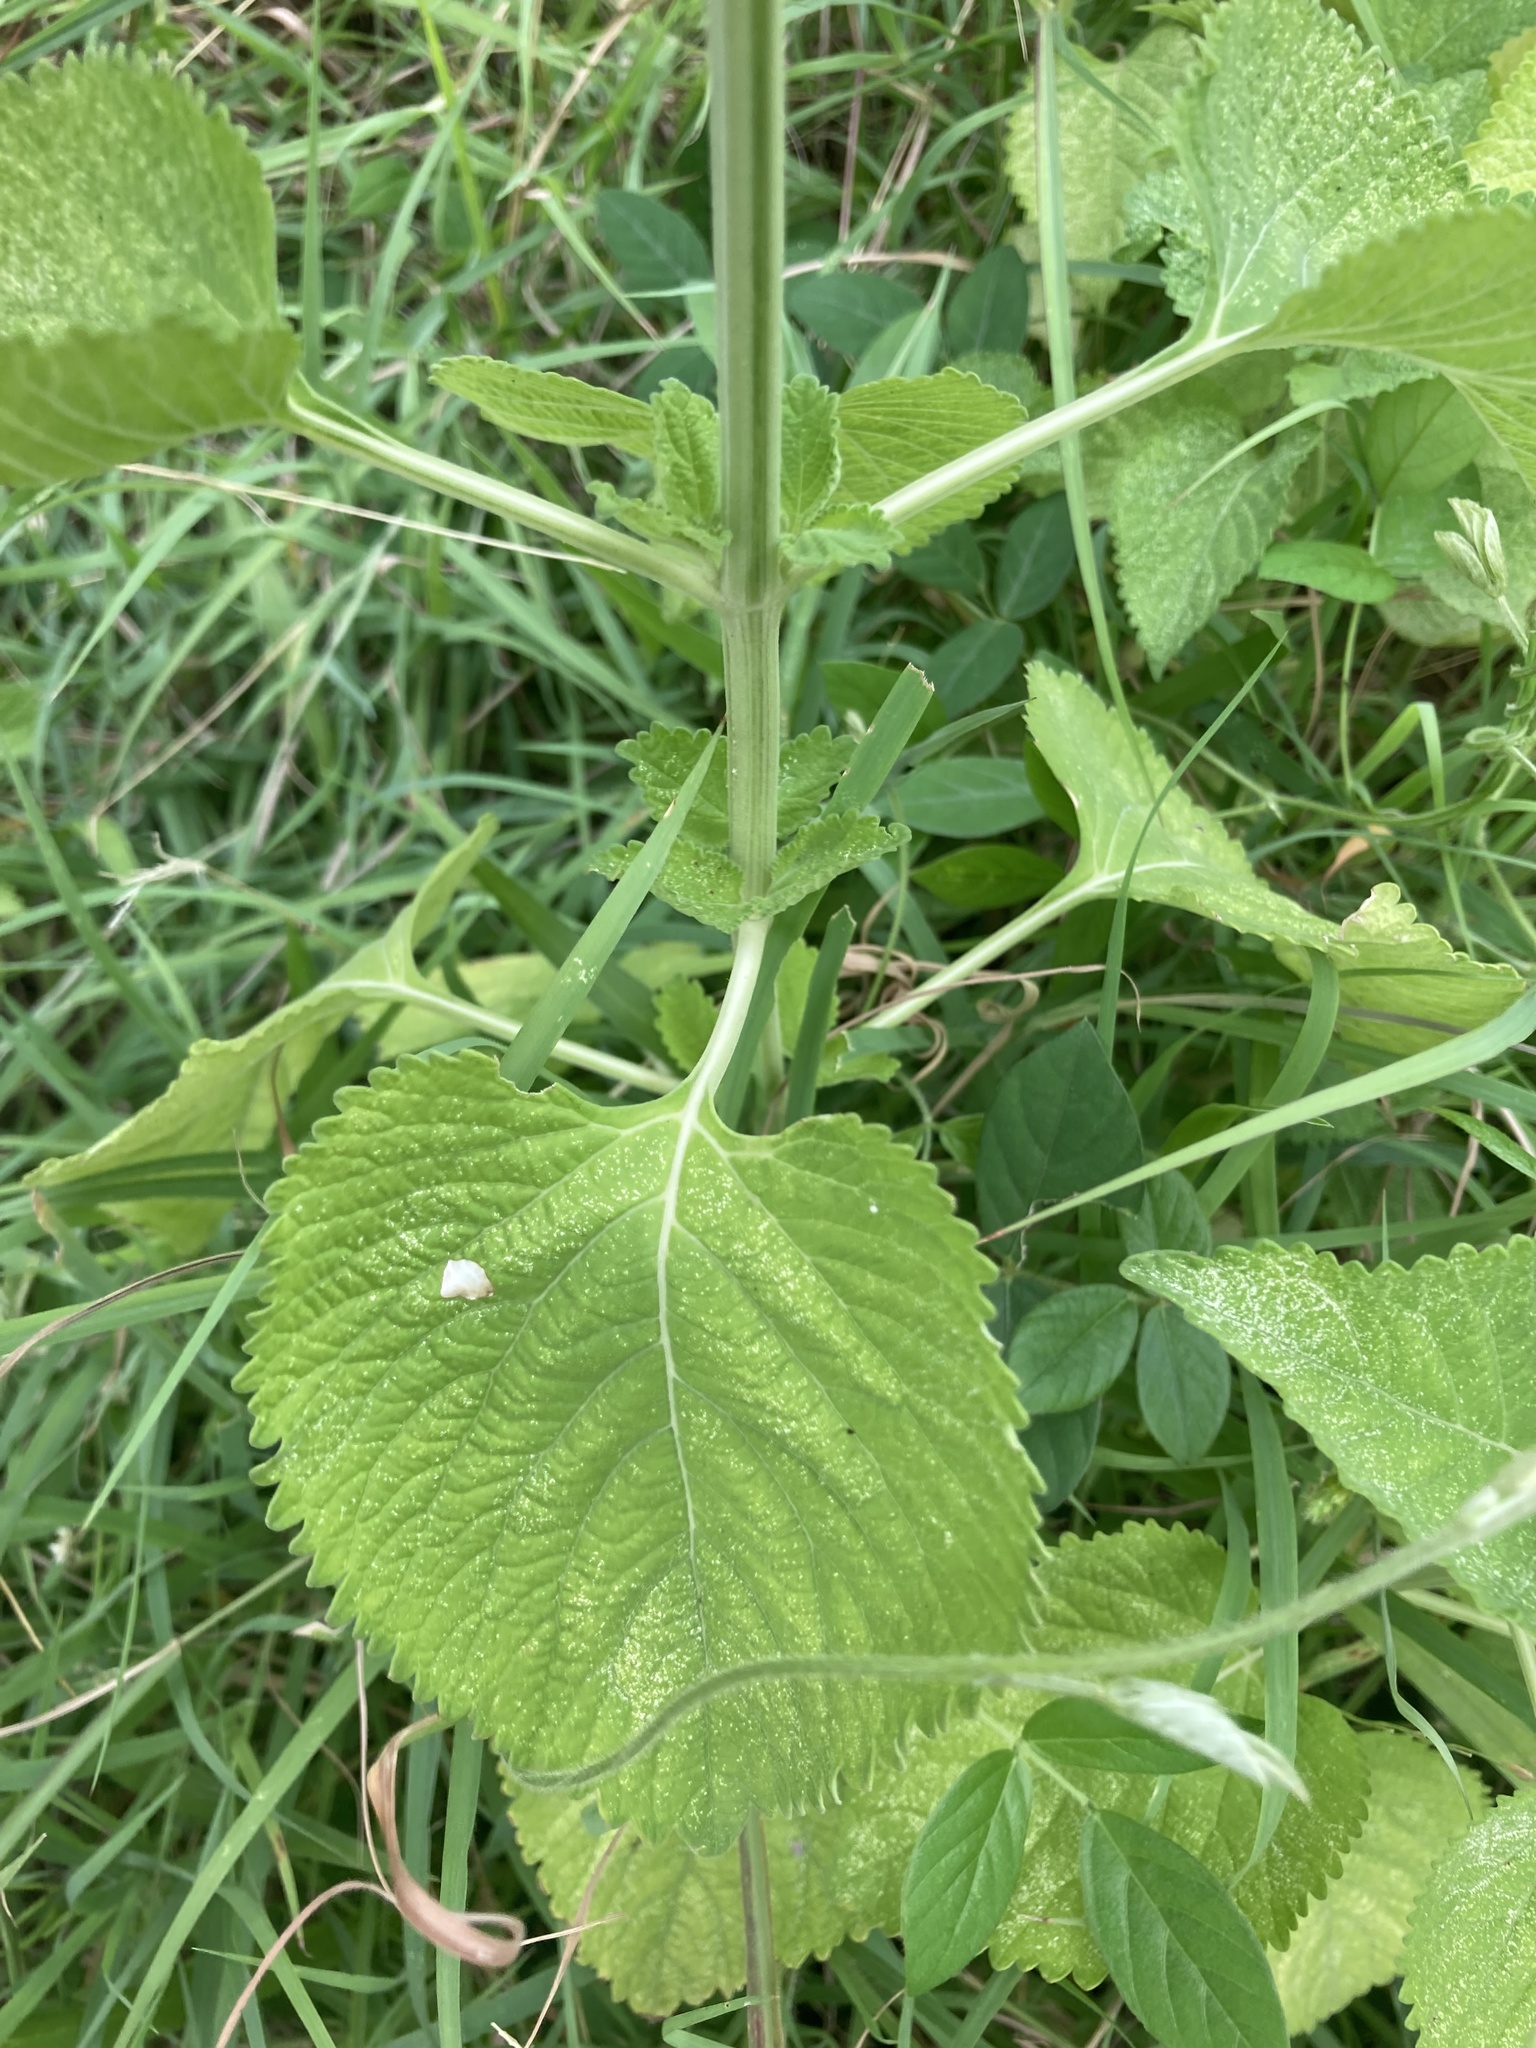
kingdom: Plantae
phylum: Tracheophyta
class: Magnoliopsida
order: Lamiales
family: Lamiaceae
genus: Leonotis
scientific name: Leonotis nepetifolia
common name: Christmas candlestick
